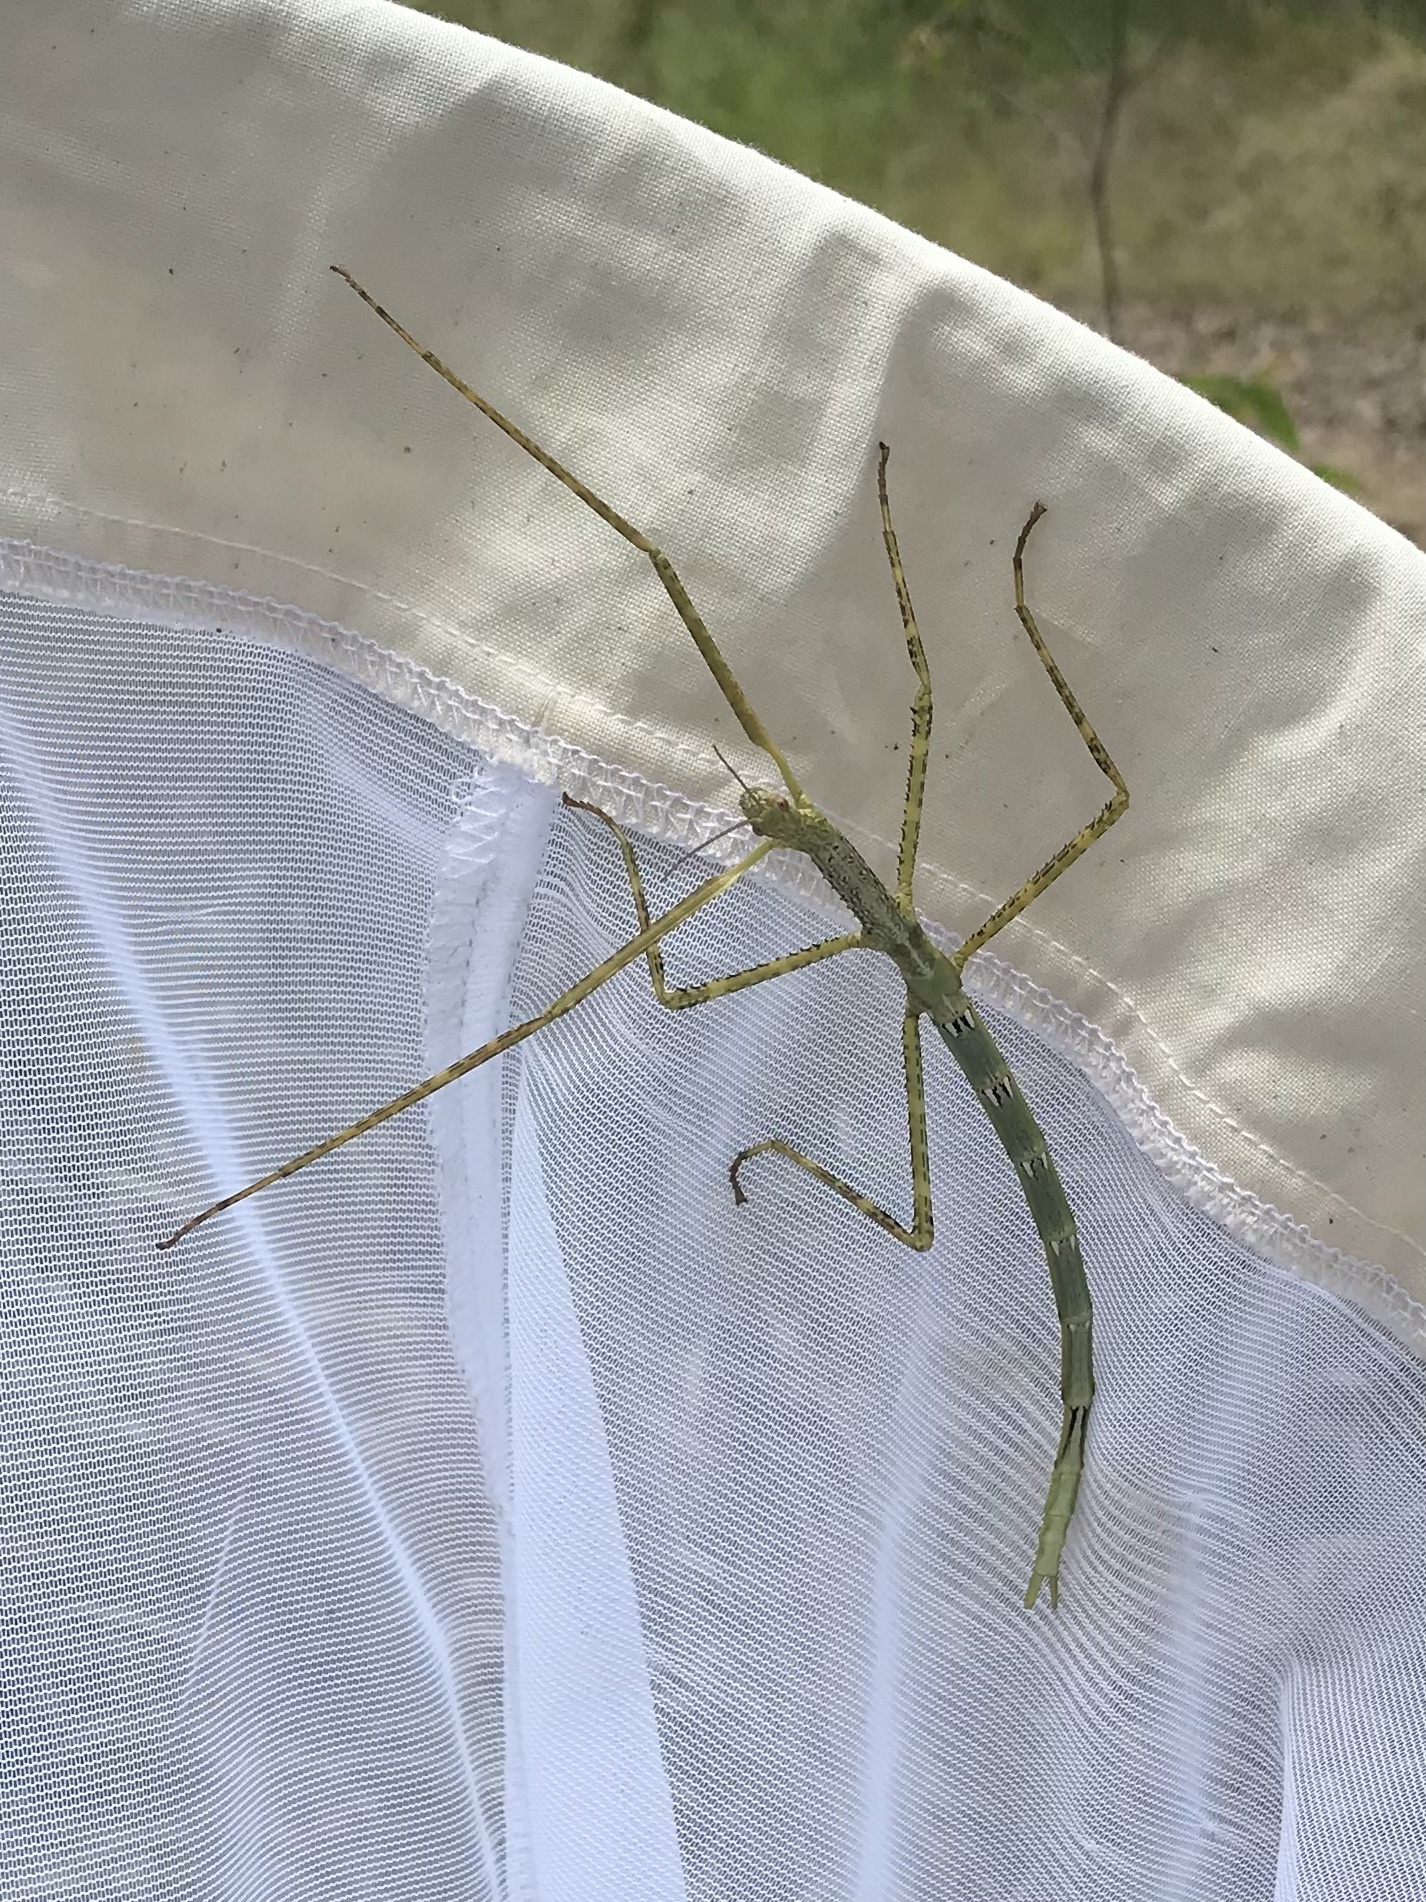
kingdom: Animalia
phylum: Arthropoda
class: Insecta
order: Phasmida
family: Phasmatidae
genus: Anchiale
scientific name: Anchiale austrotessulata
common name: Tessellated stick-insect
